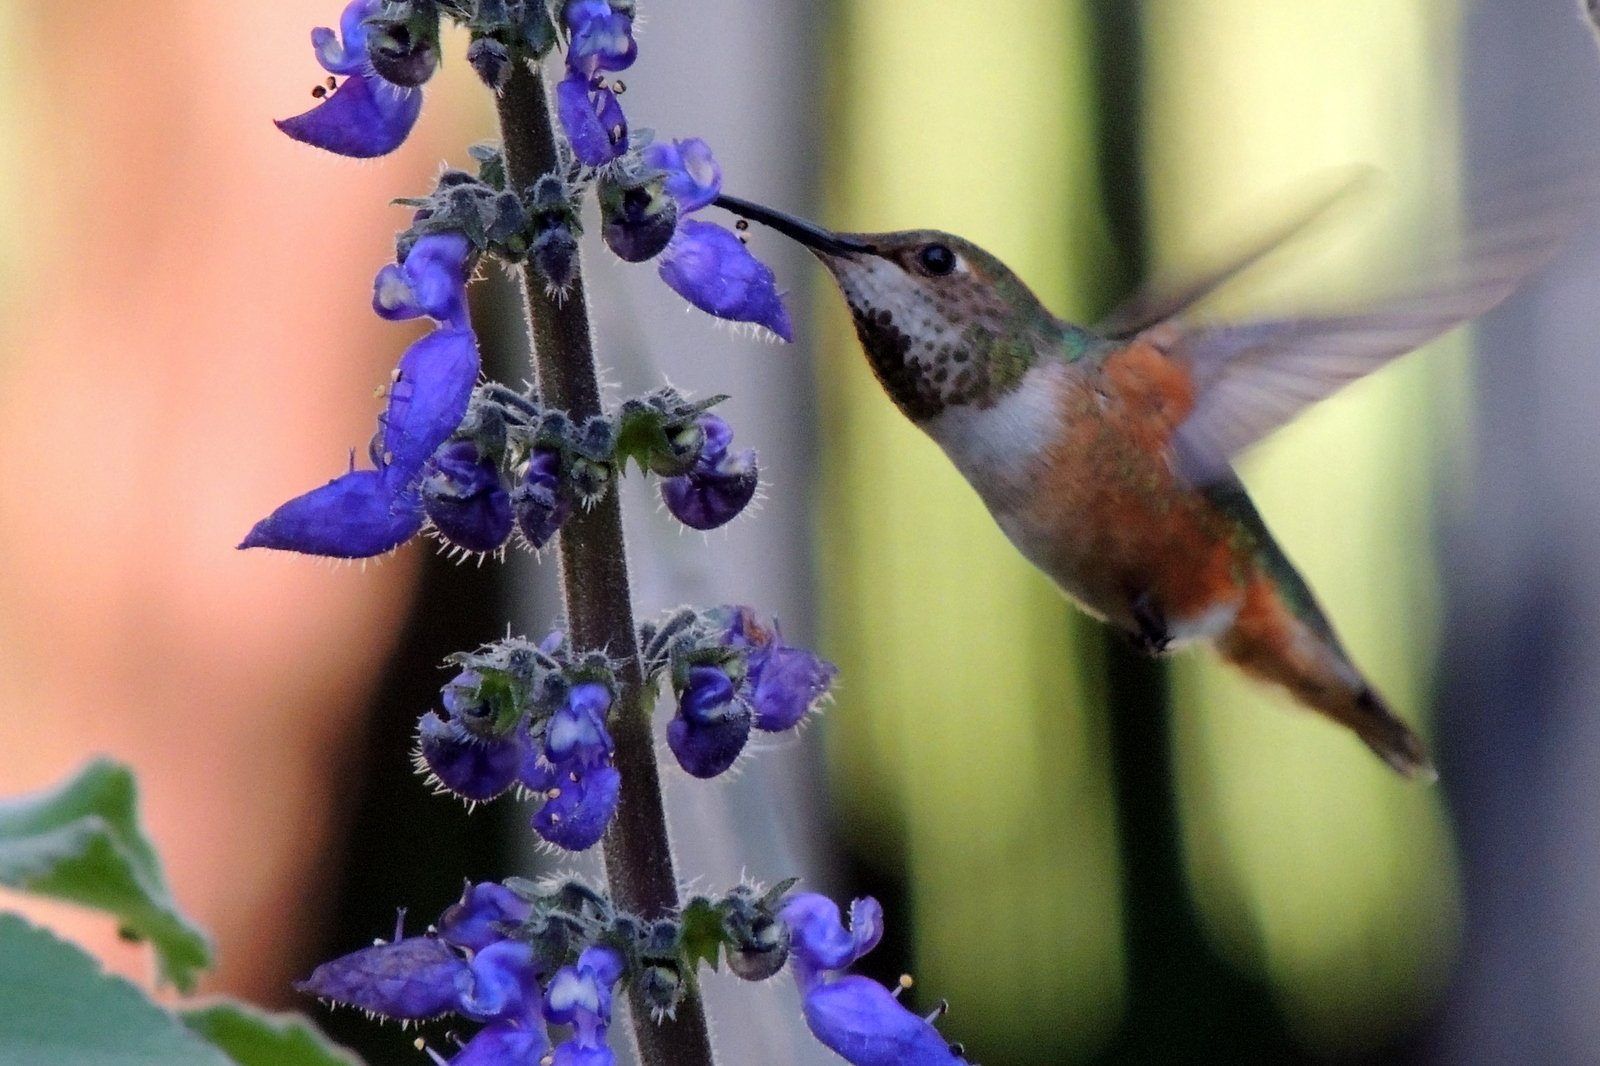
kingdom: Animalia
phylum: Chordata
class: Aves
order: Apodiformes
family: Trochilidae
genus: Selasphorus
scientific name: Selasphorus sasin
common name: Allen's hummingbird
